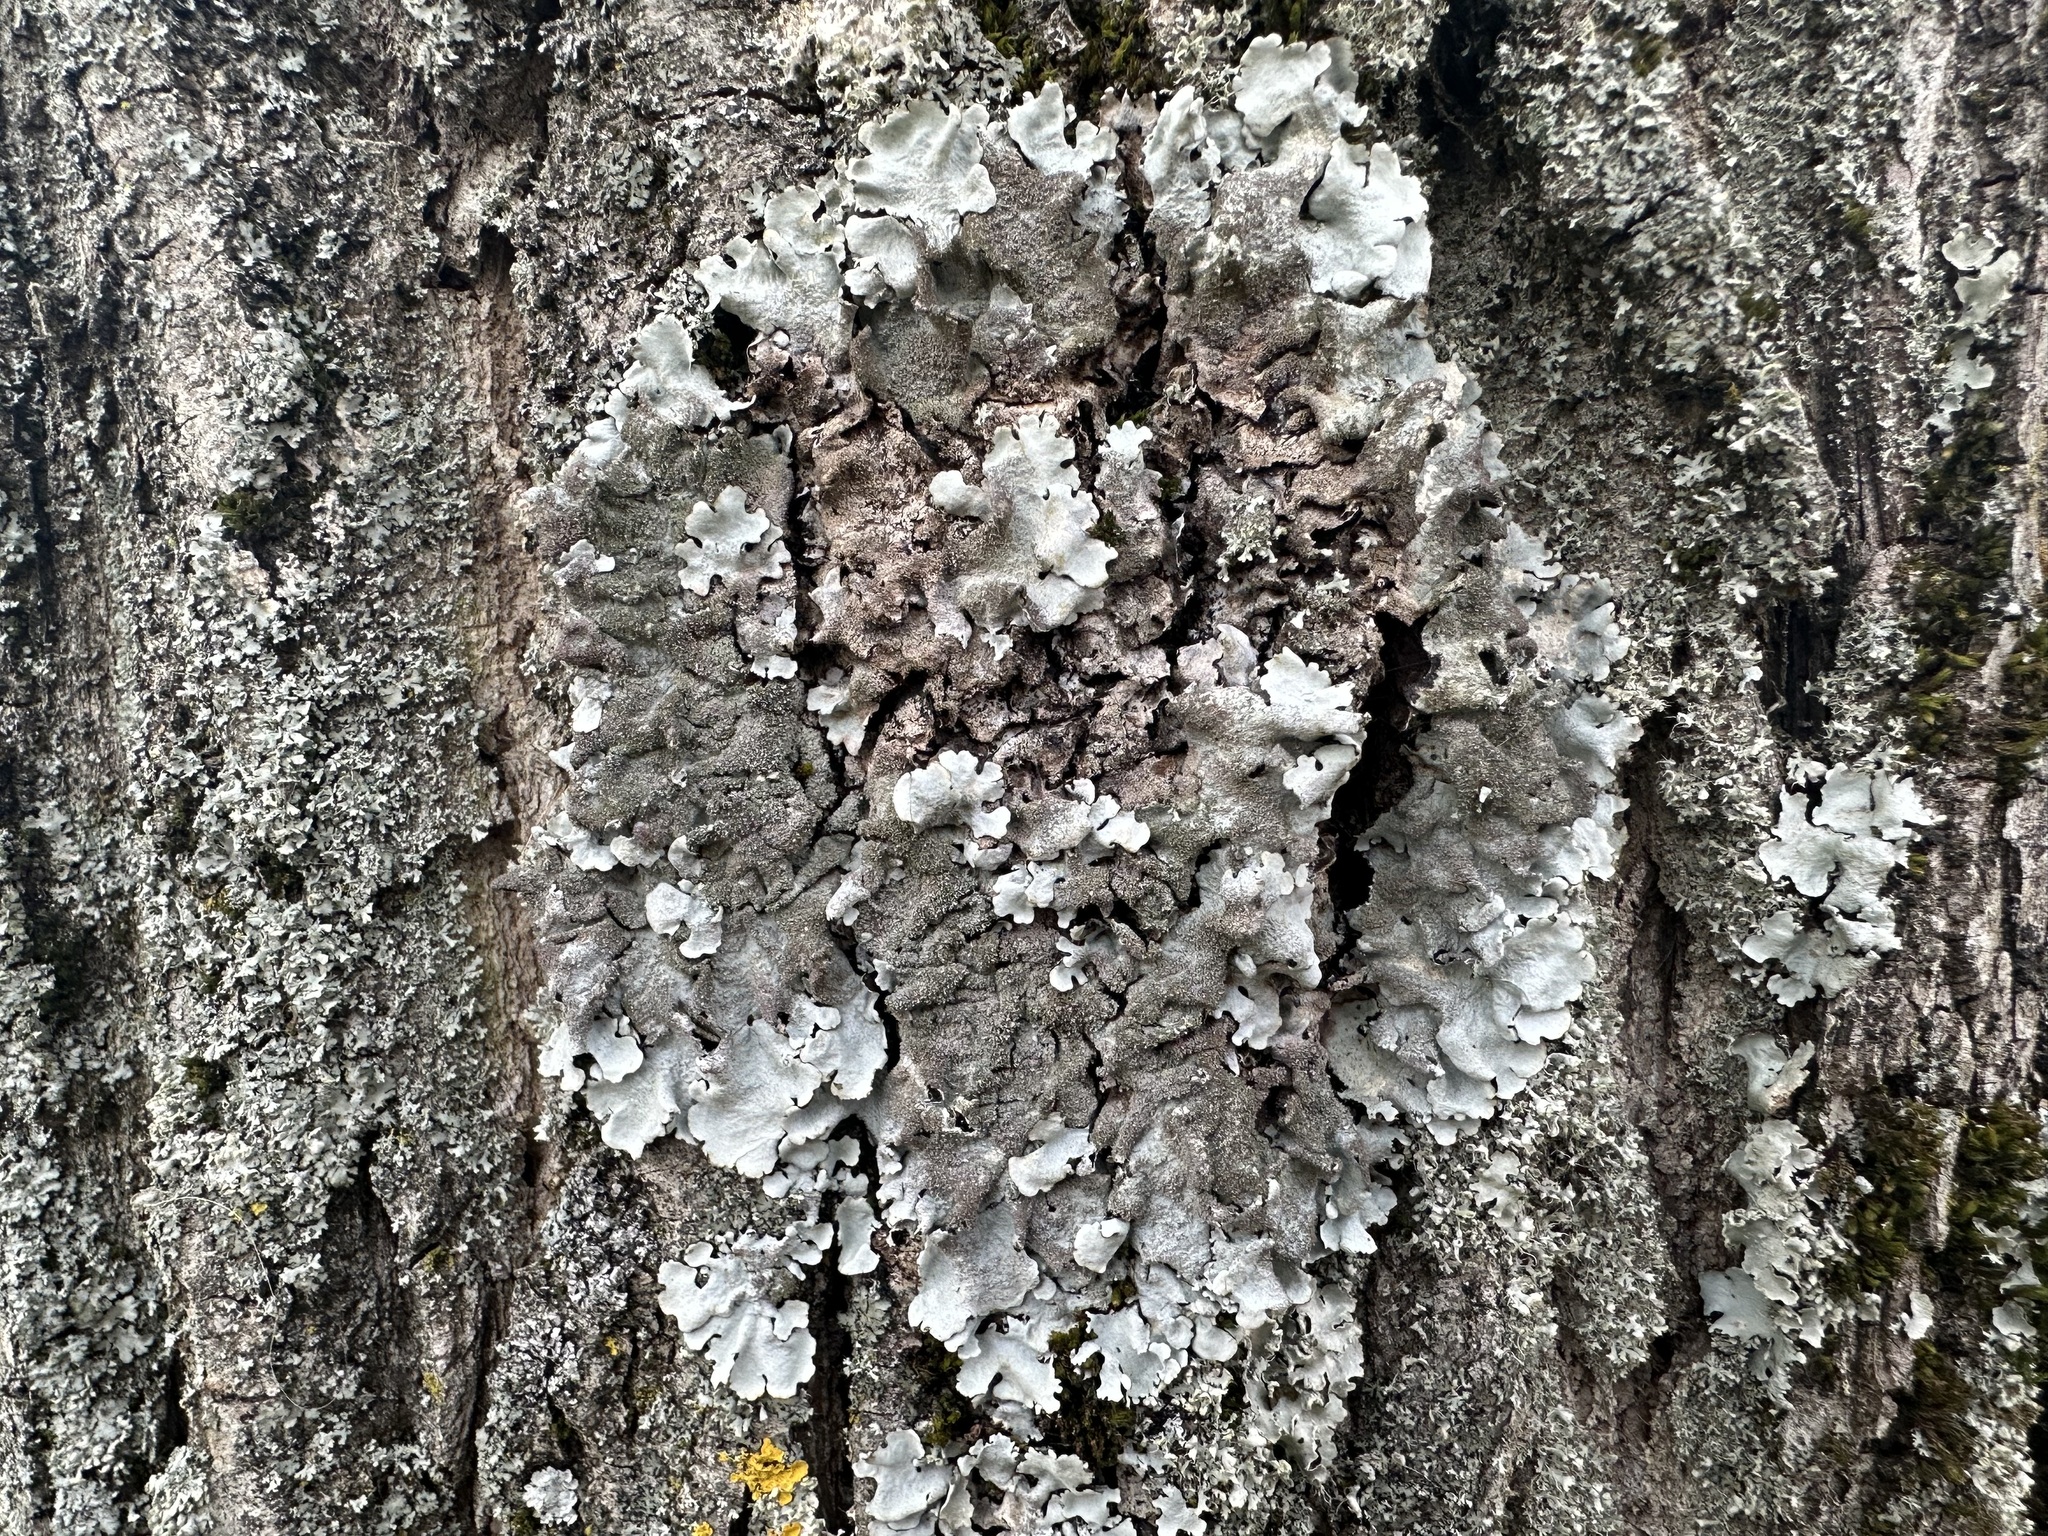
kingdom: Fungi
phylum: Ascomycota
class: Lecanoromycetes
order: Lecanorales
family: Parmeliaceae
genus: Parmelina
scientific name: Parmelina tiliacea
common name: Linden shield lichen
